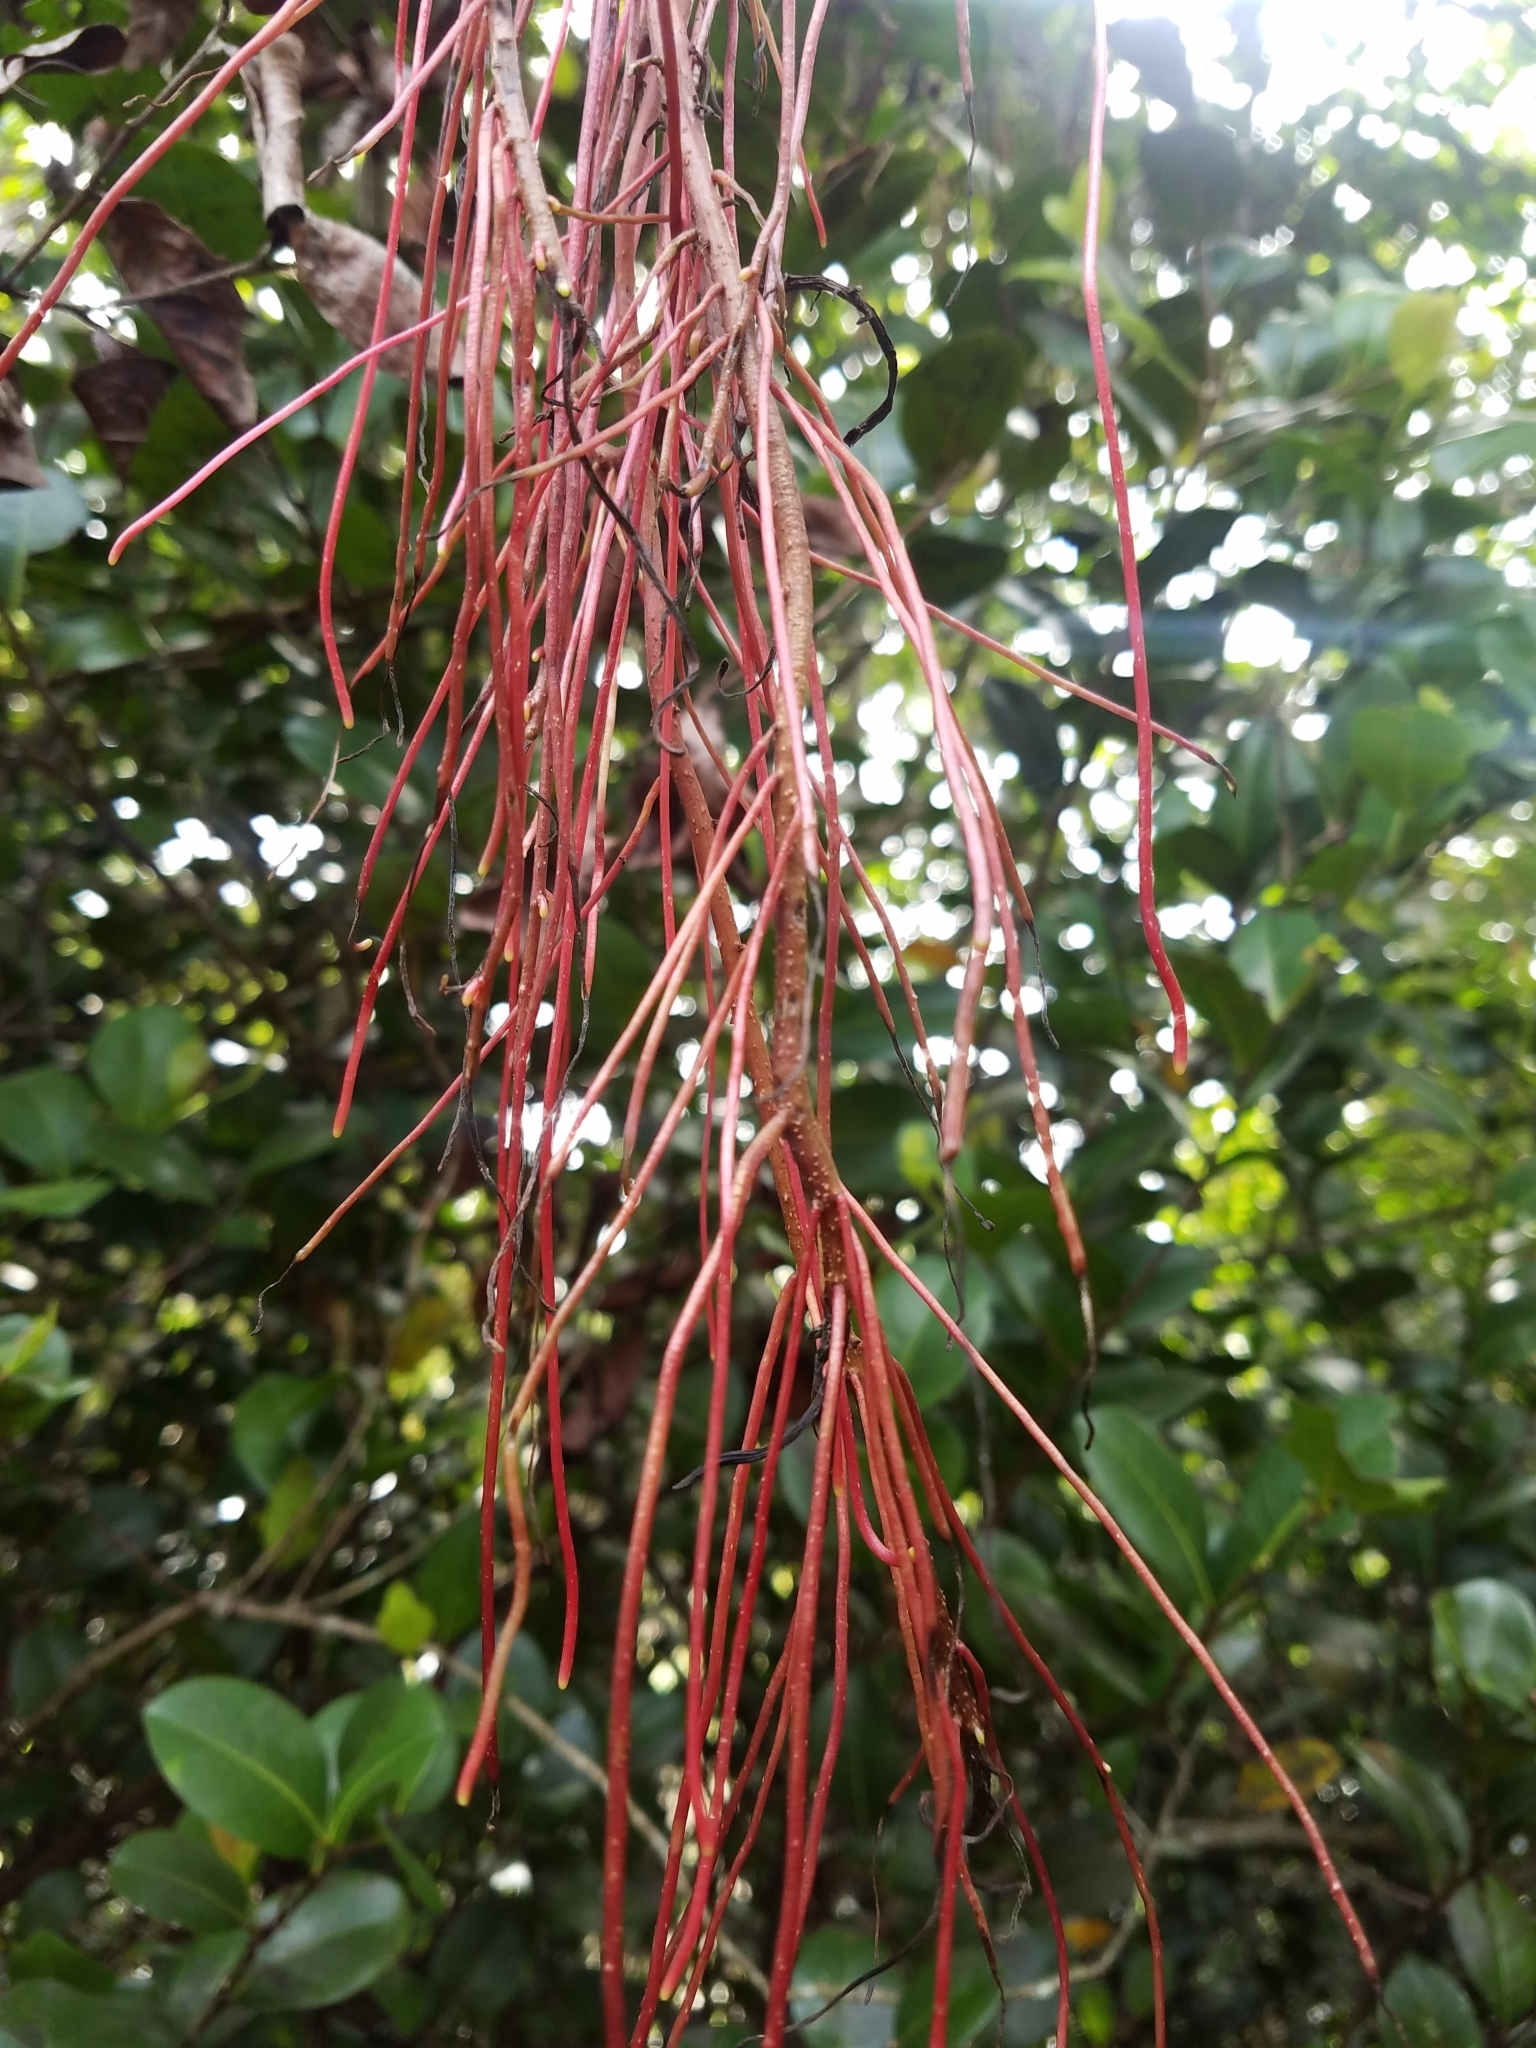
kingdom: Plantae
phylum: Tracheophyta
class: Magnoliopsida
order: Vitales
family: Vitaceae
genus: Cissus
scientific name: Cissus verticillata
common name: Princess vine
